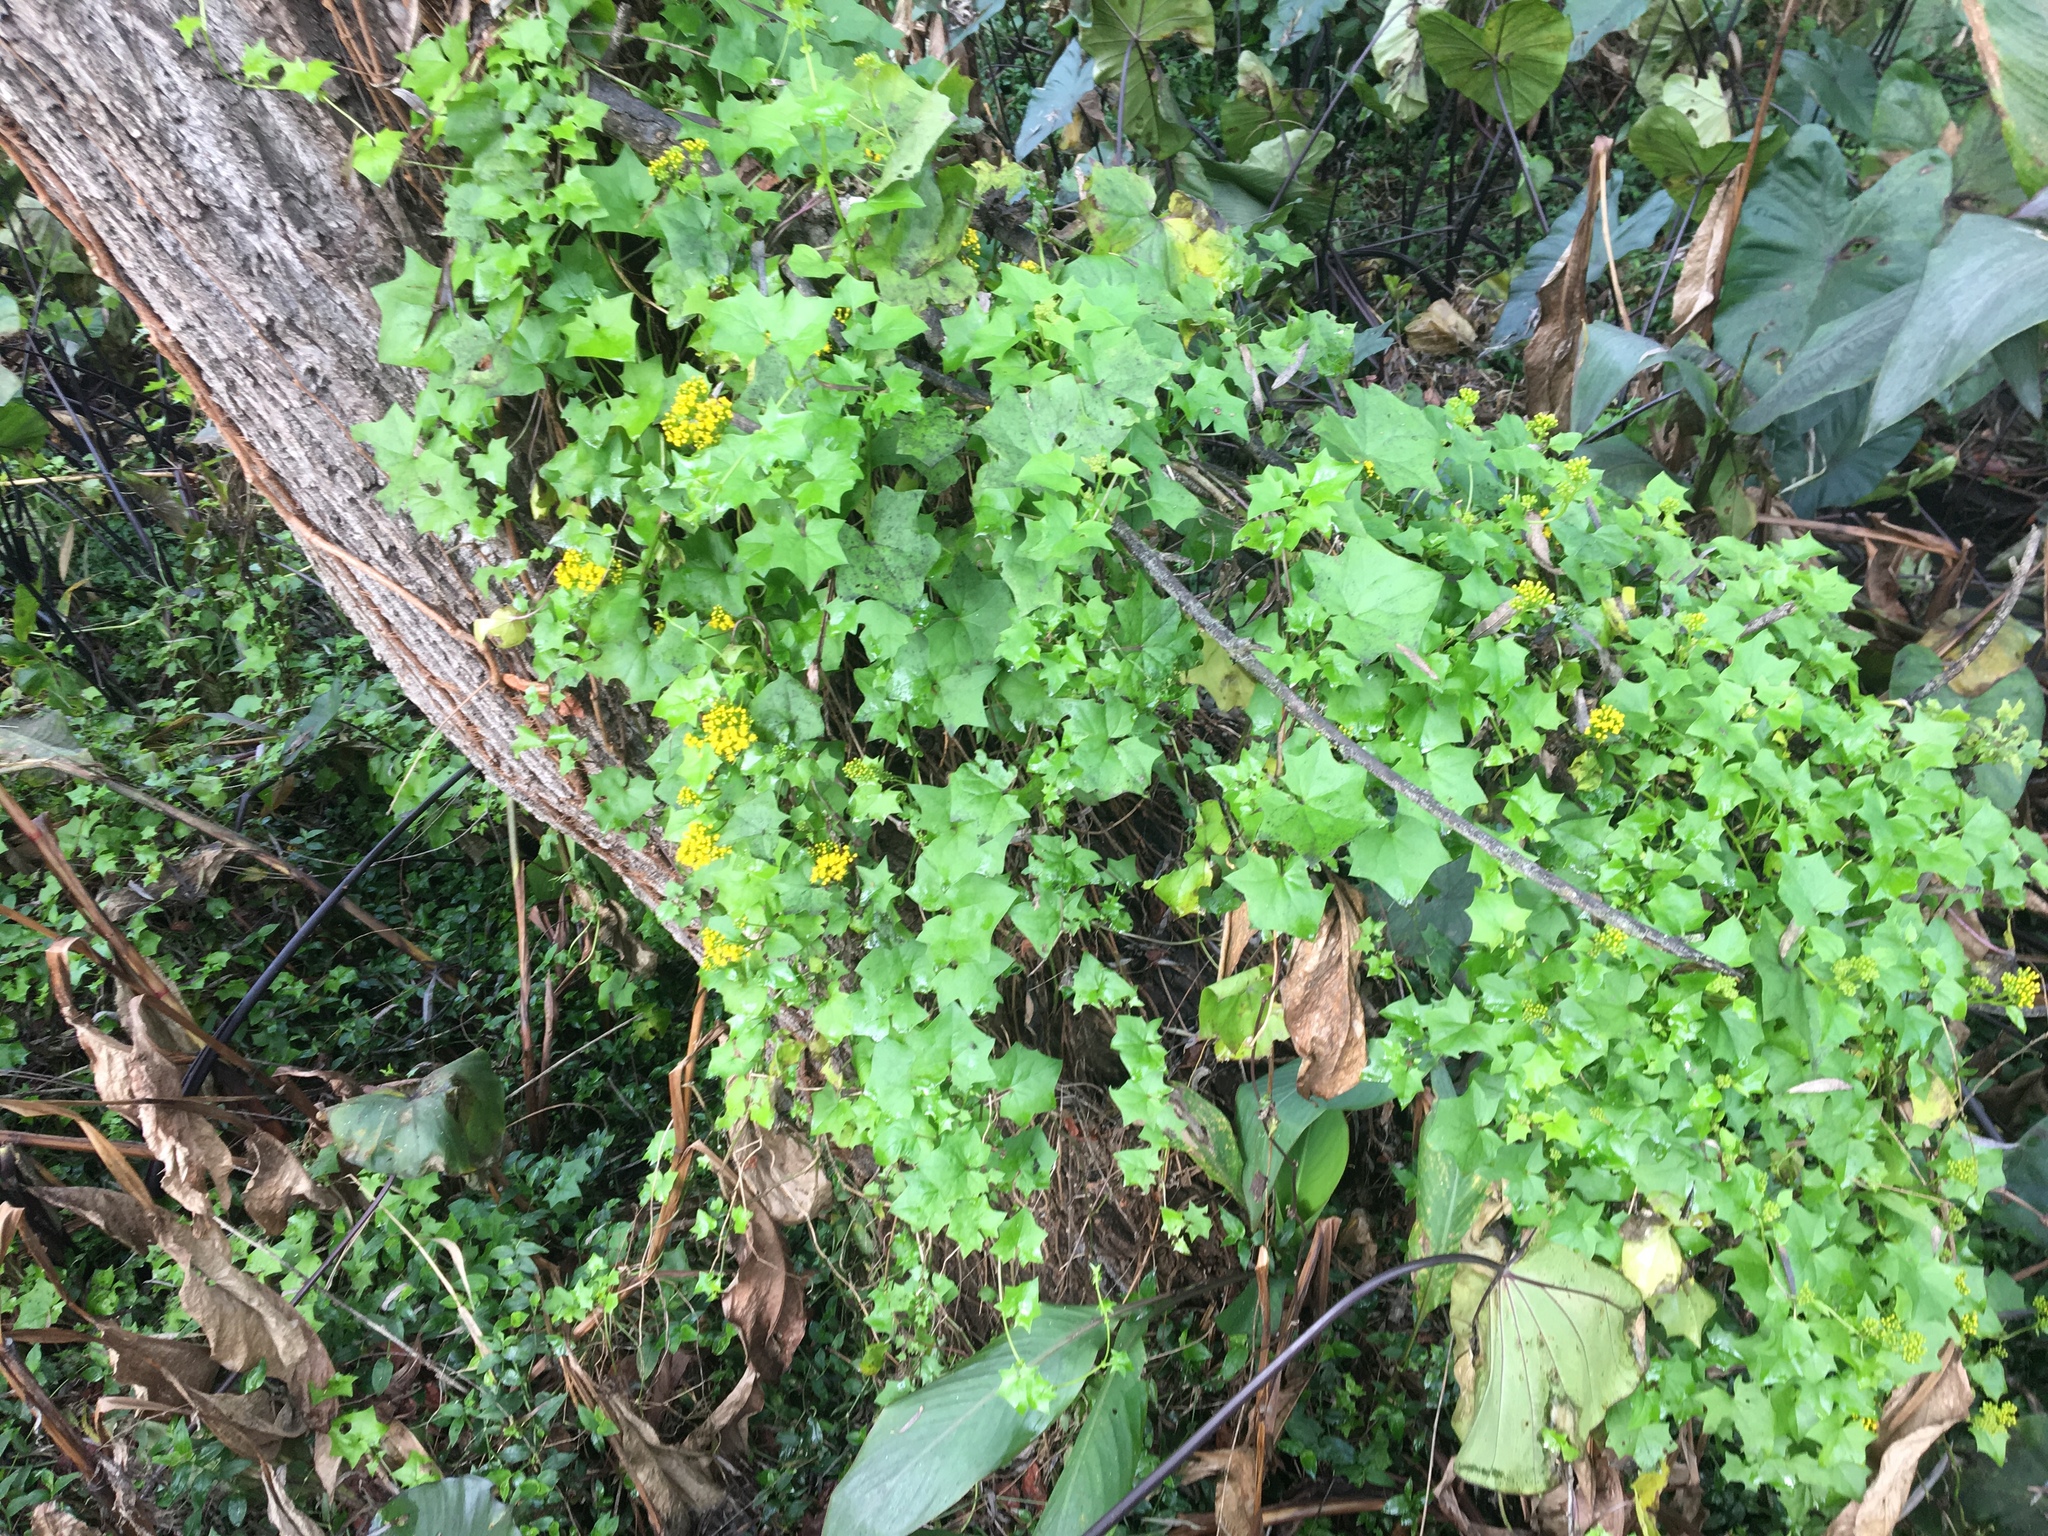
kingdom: Plantae
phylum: Tracheophyta
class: Magnoliopsida
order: Asterales
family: Asteraceae
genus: Delairea
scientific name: Delairea odorata
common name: Cape-ivy
